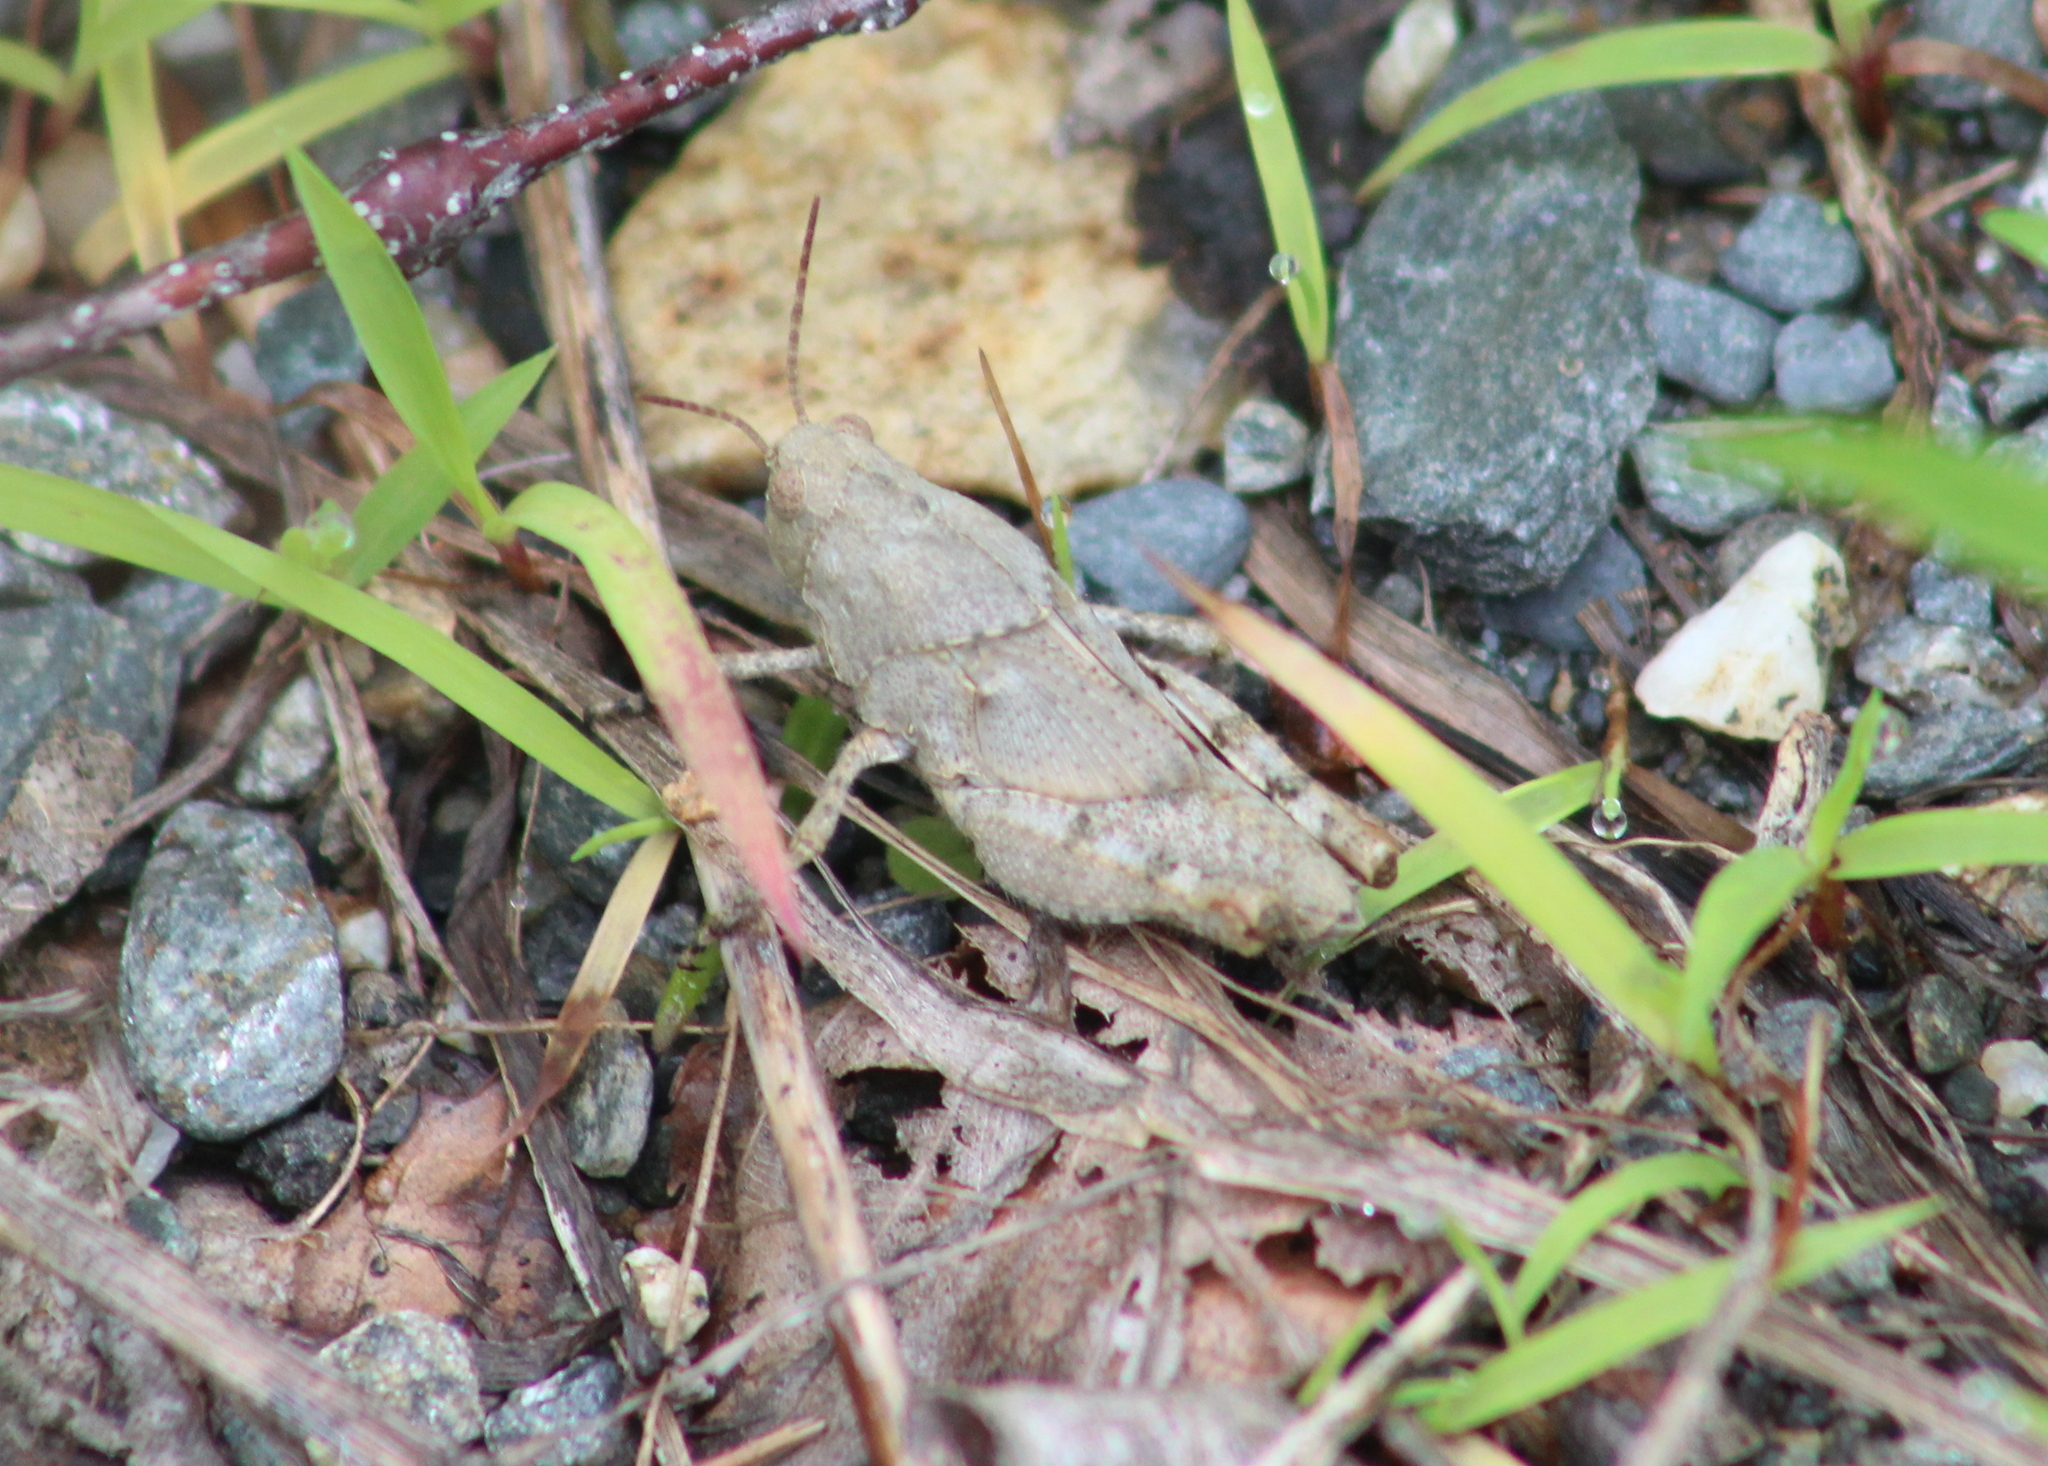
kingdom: Animalia
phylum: Arthropoda
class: Insecta
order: Orthoptera
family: Acrididae
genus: Dissosteira
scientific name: Dissosteira carolina
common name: Carolina grasshopper
